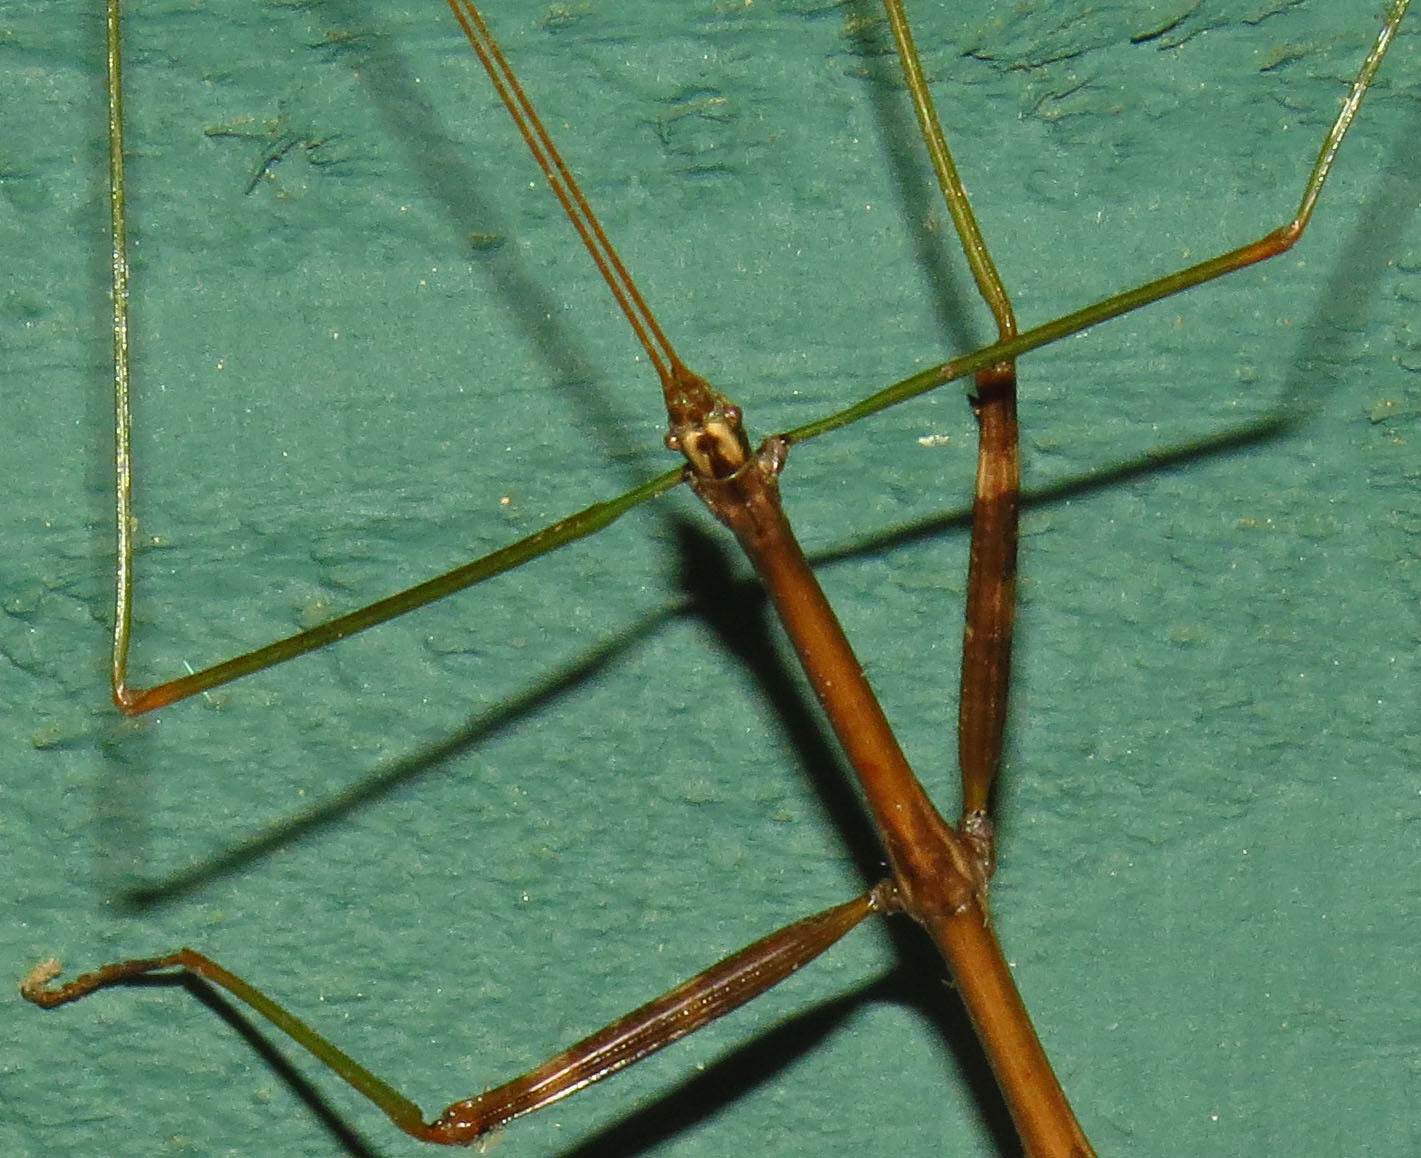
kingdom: Animalia
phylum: Arthropoda
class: Insecta
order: Phasmida
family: Diapheromeridae
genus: Diapheromera
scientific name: Diapheromera femorata
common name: Common american walkingstick
